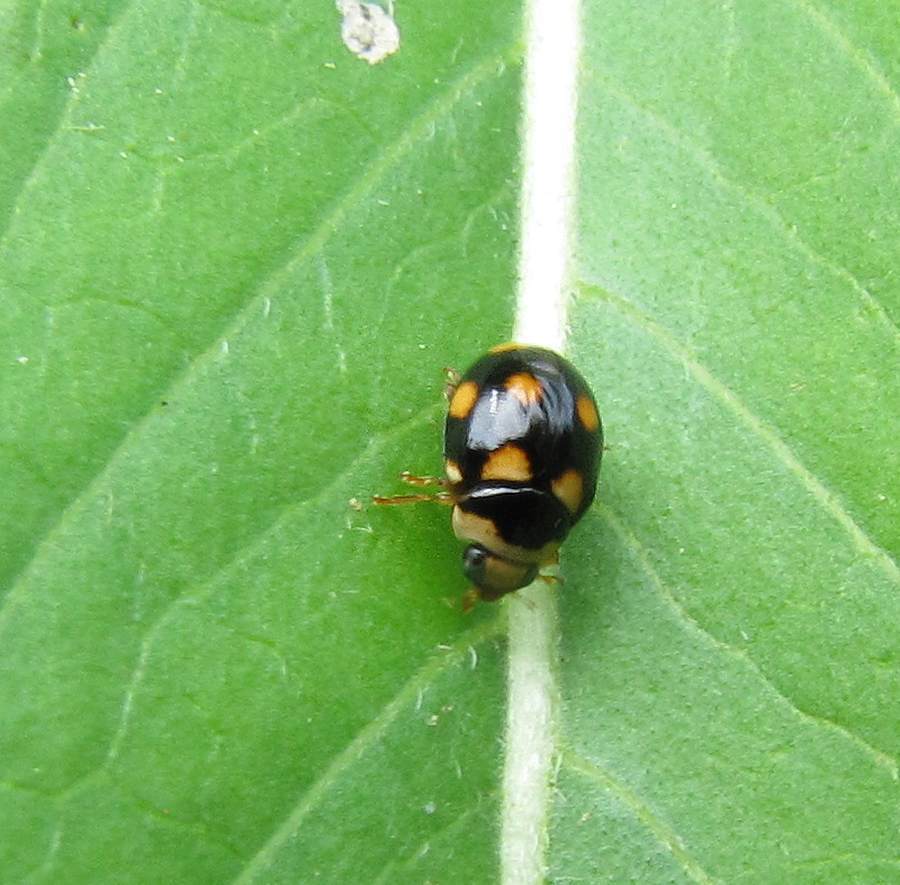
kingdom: Animalia
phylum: Arthropoda
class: Insecta
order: Coleoptera
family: Coccinellidae
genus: Brachiacantha
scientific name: Brachiacantha ursina
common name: Ursine spurleg lady beetle
